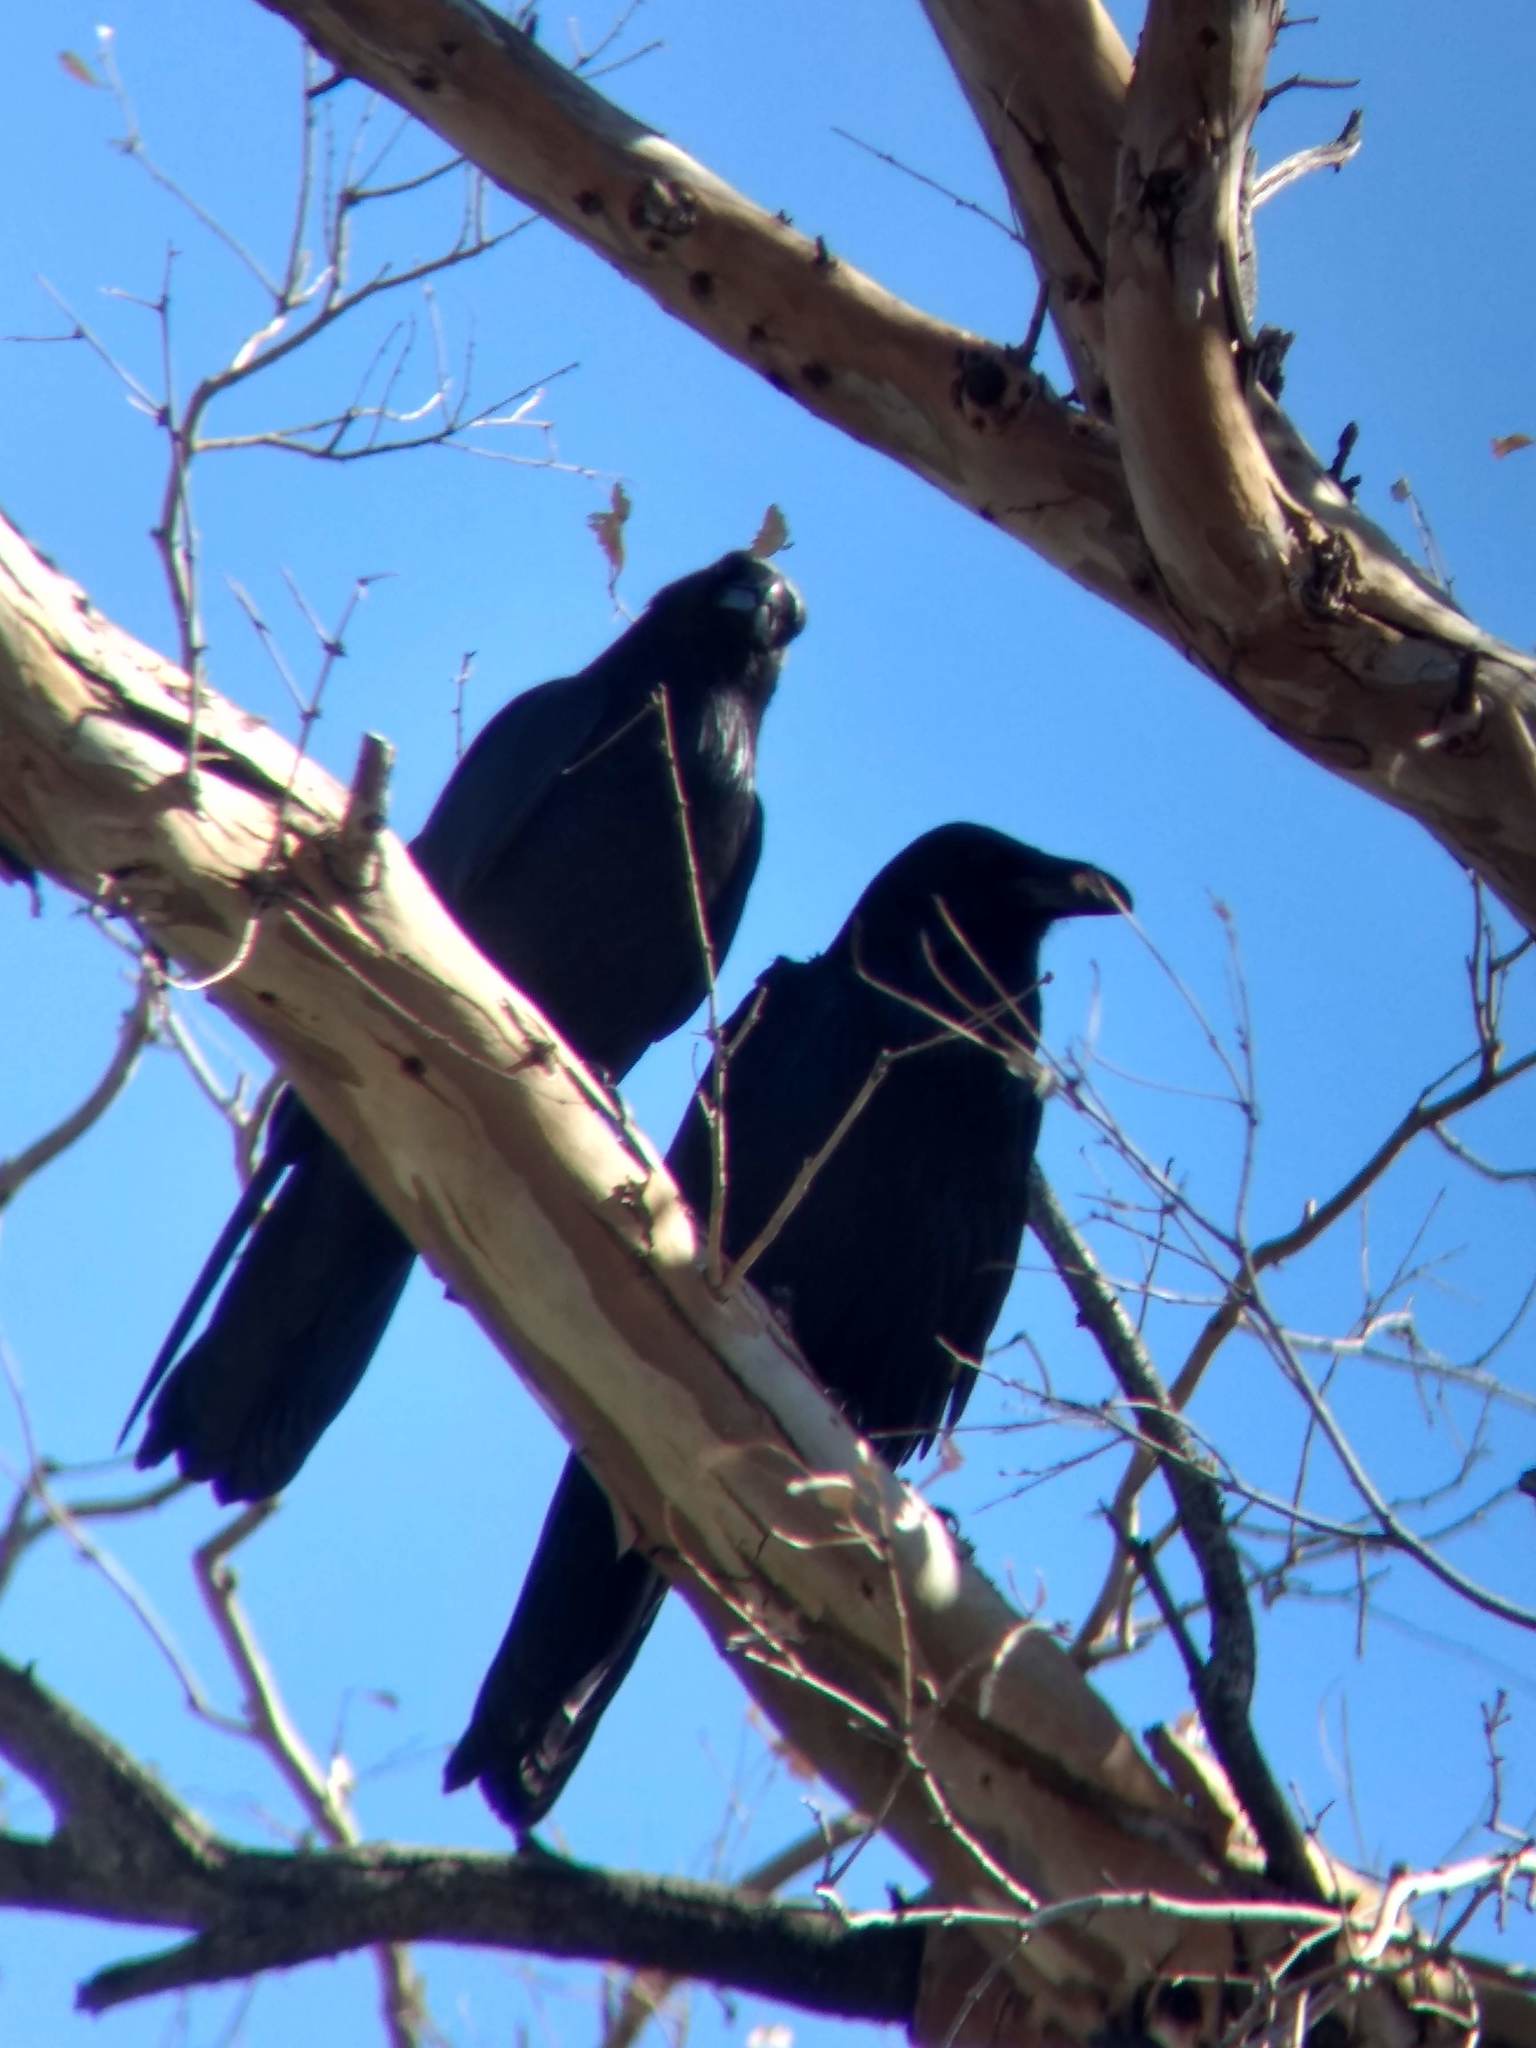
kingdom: Animalia
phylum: Chordata
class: Aves
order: Passeriformes
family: Corvidae
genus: Corvus
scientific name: Corvus corax
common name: Common raven
